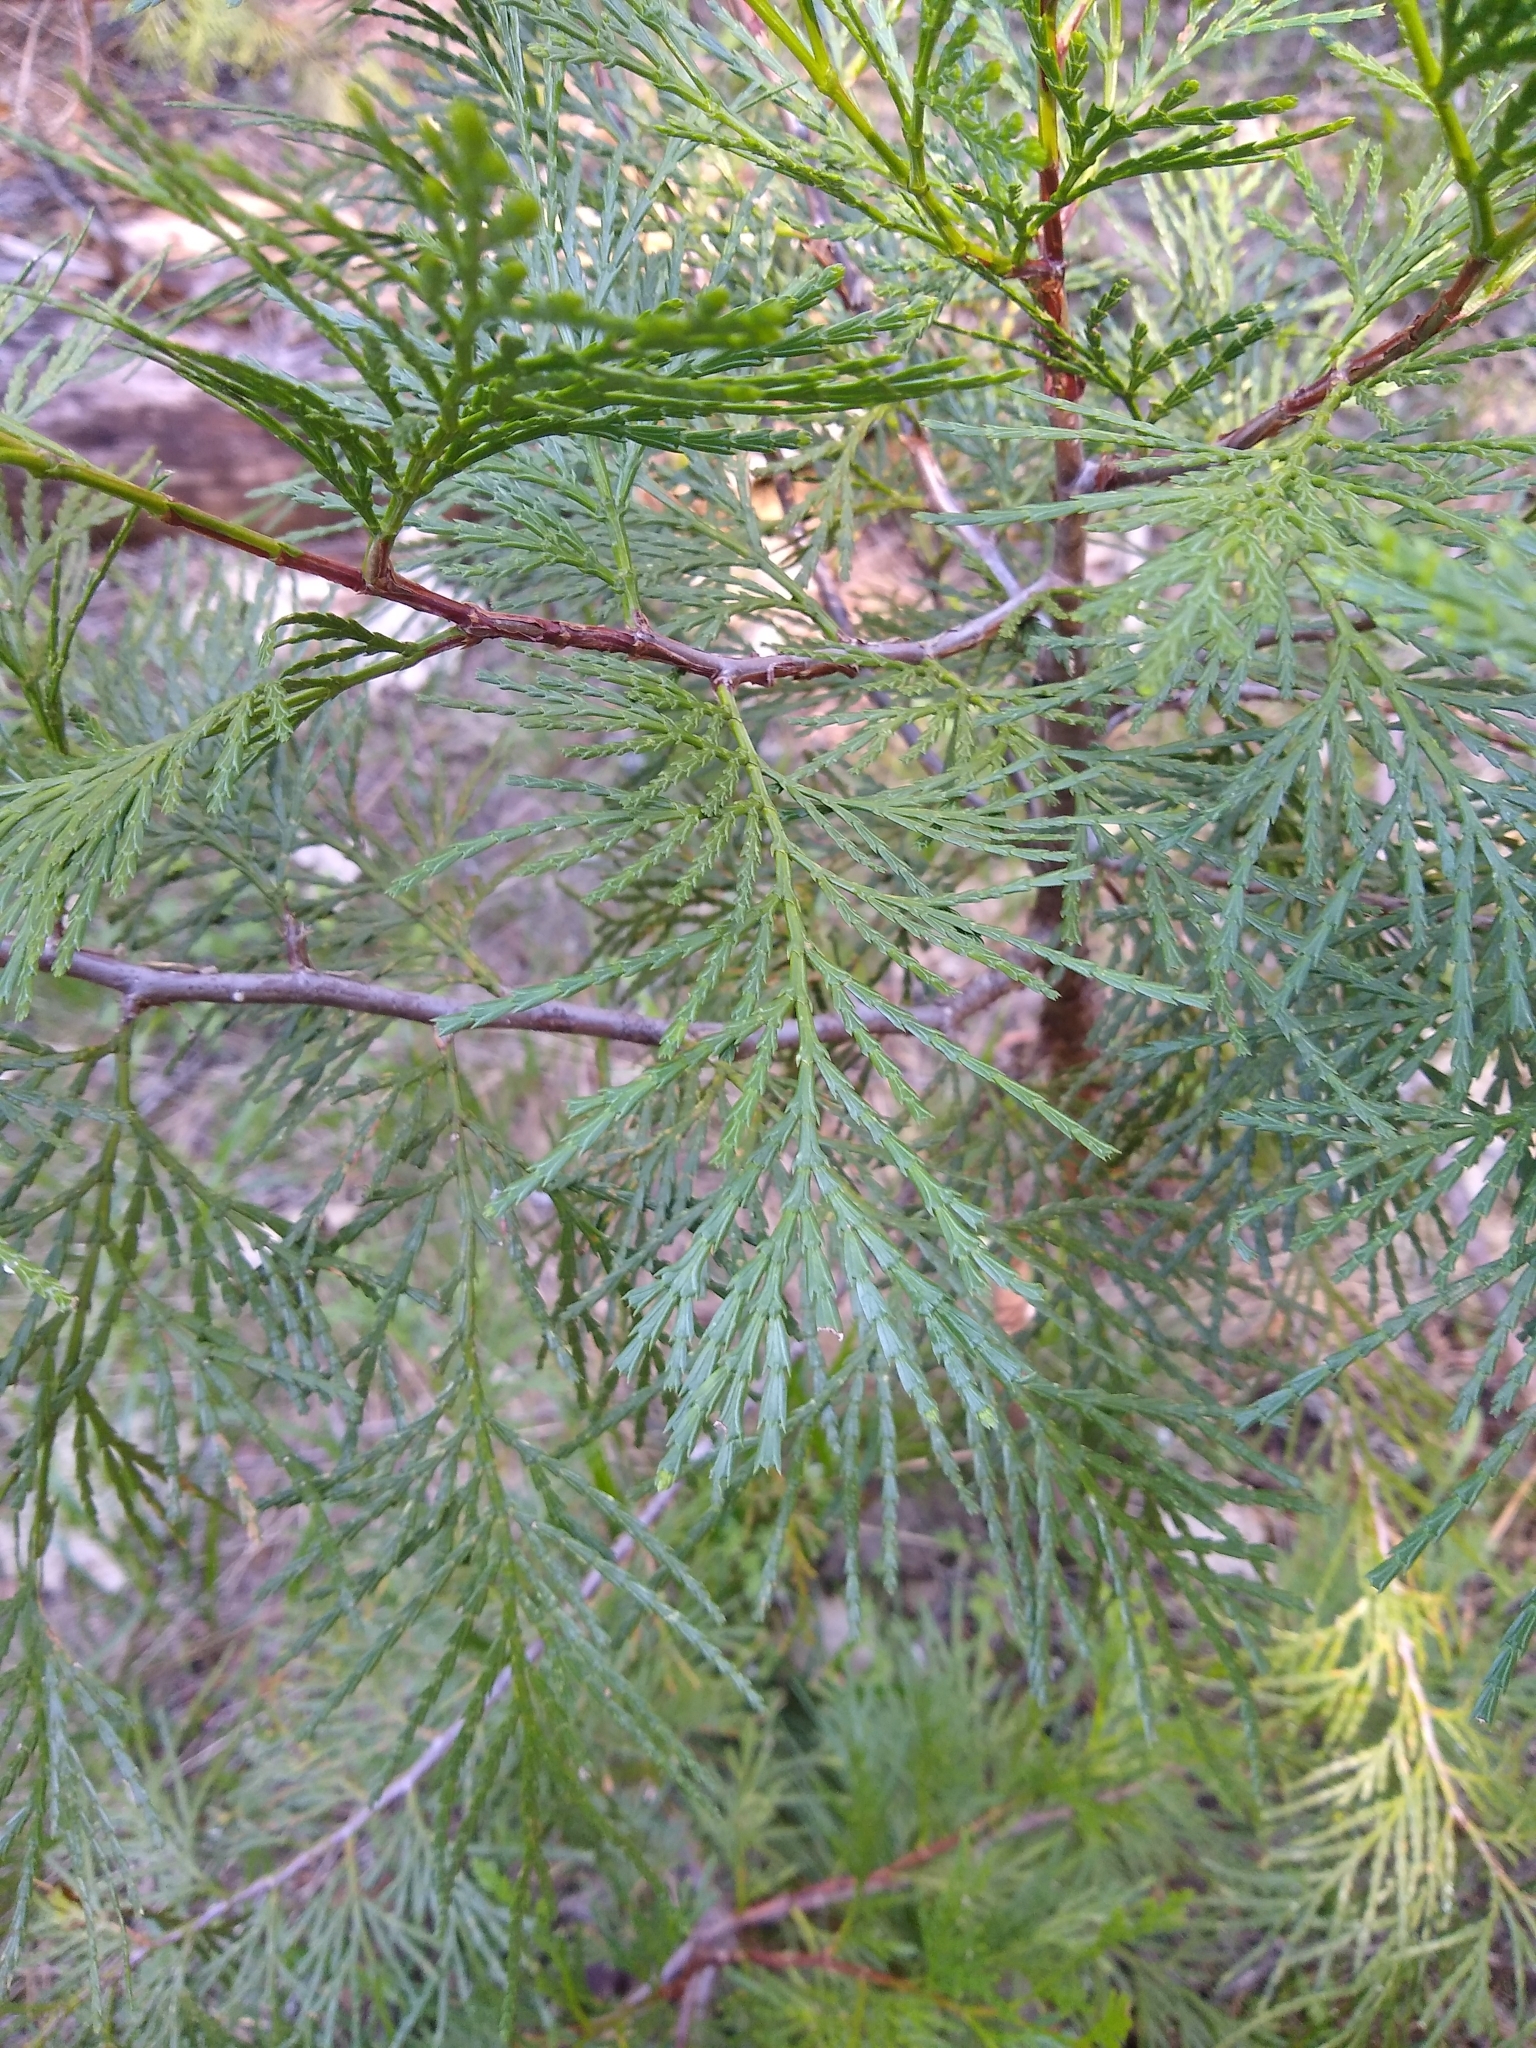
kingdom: Plantae
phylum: Tracheophyta
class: Pinopsida
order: Pinales
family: Cupressaceae
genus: Calocedrus
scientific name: Calocedrus decurrens
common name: Californian incense-cedar
